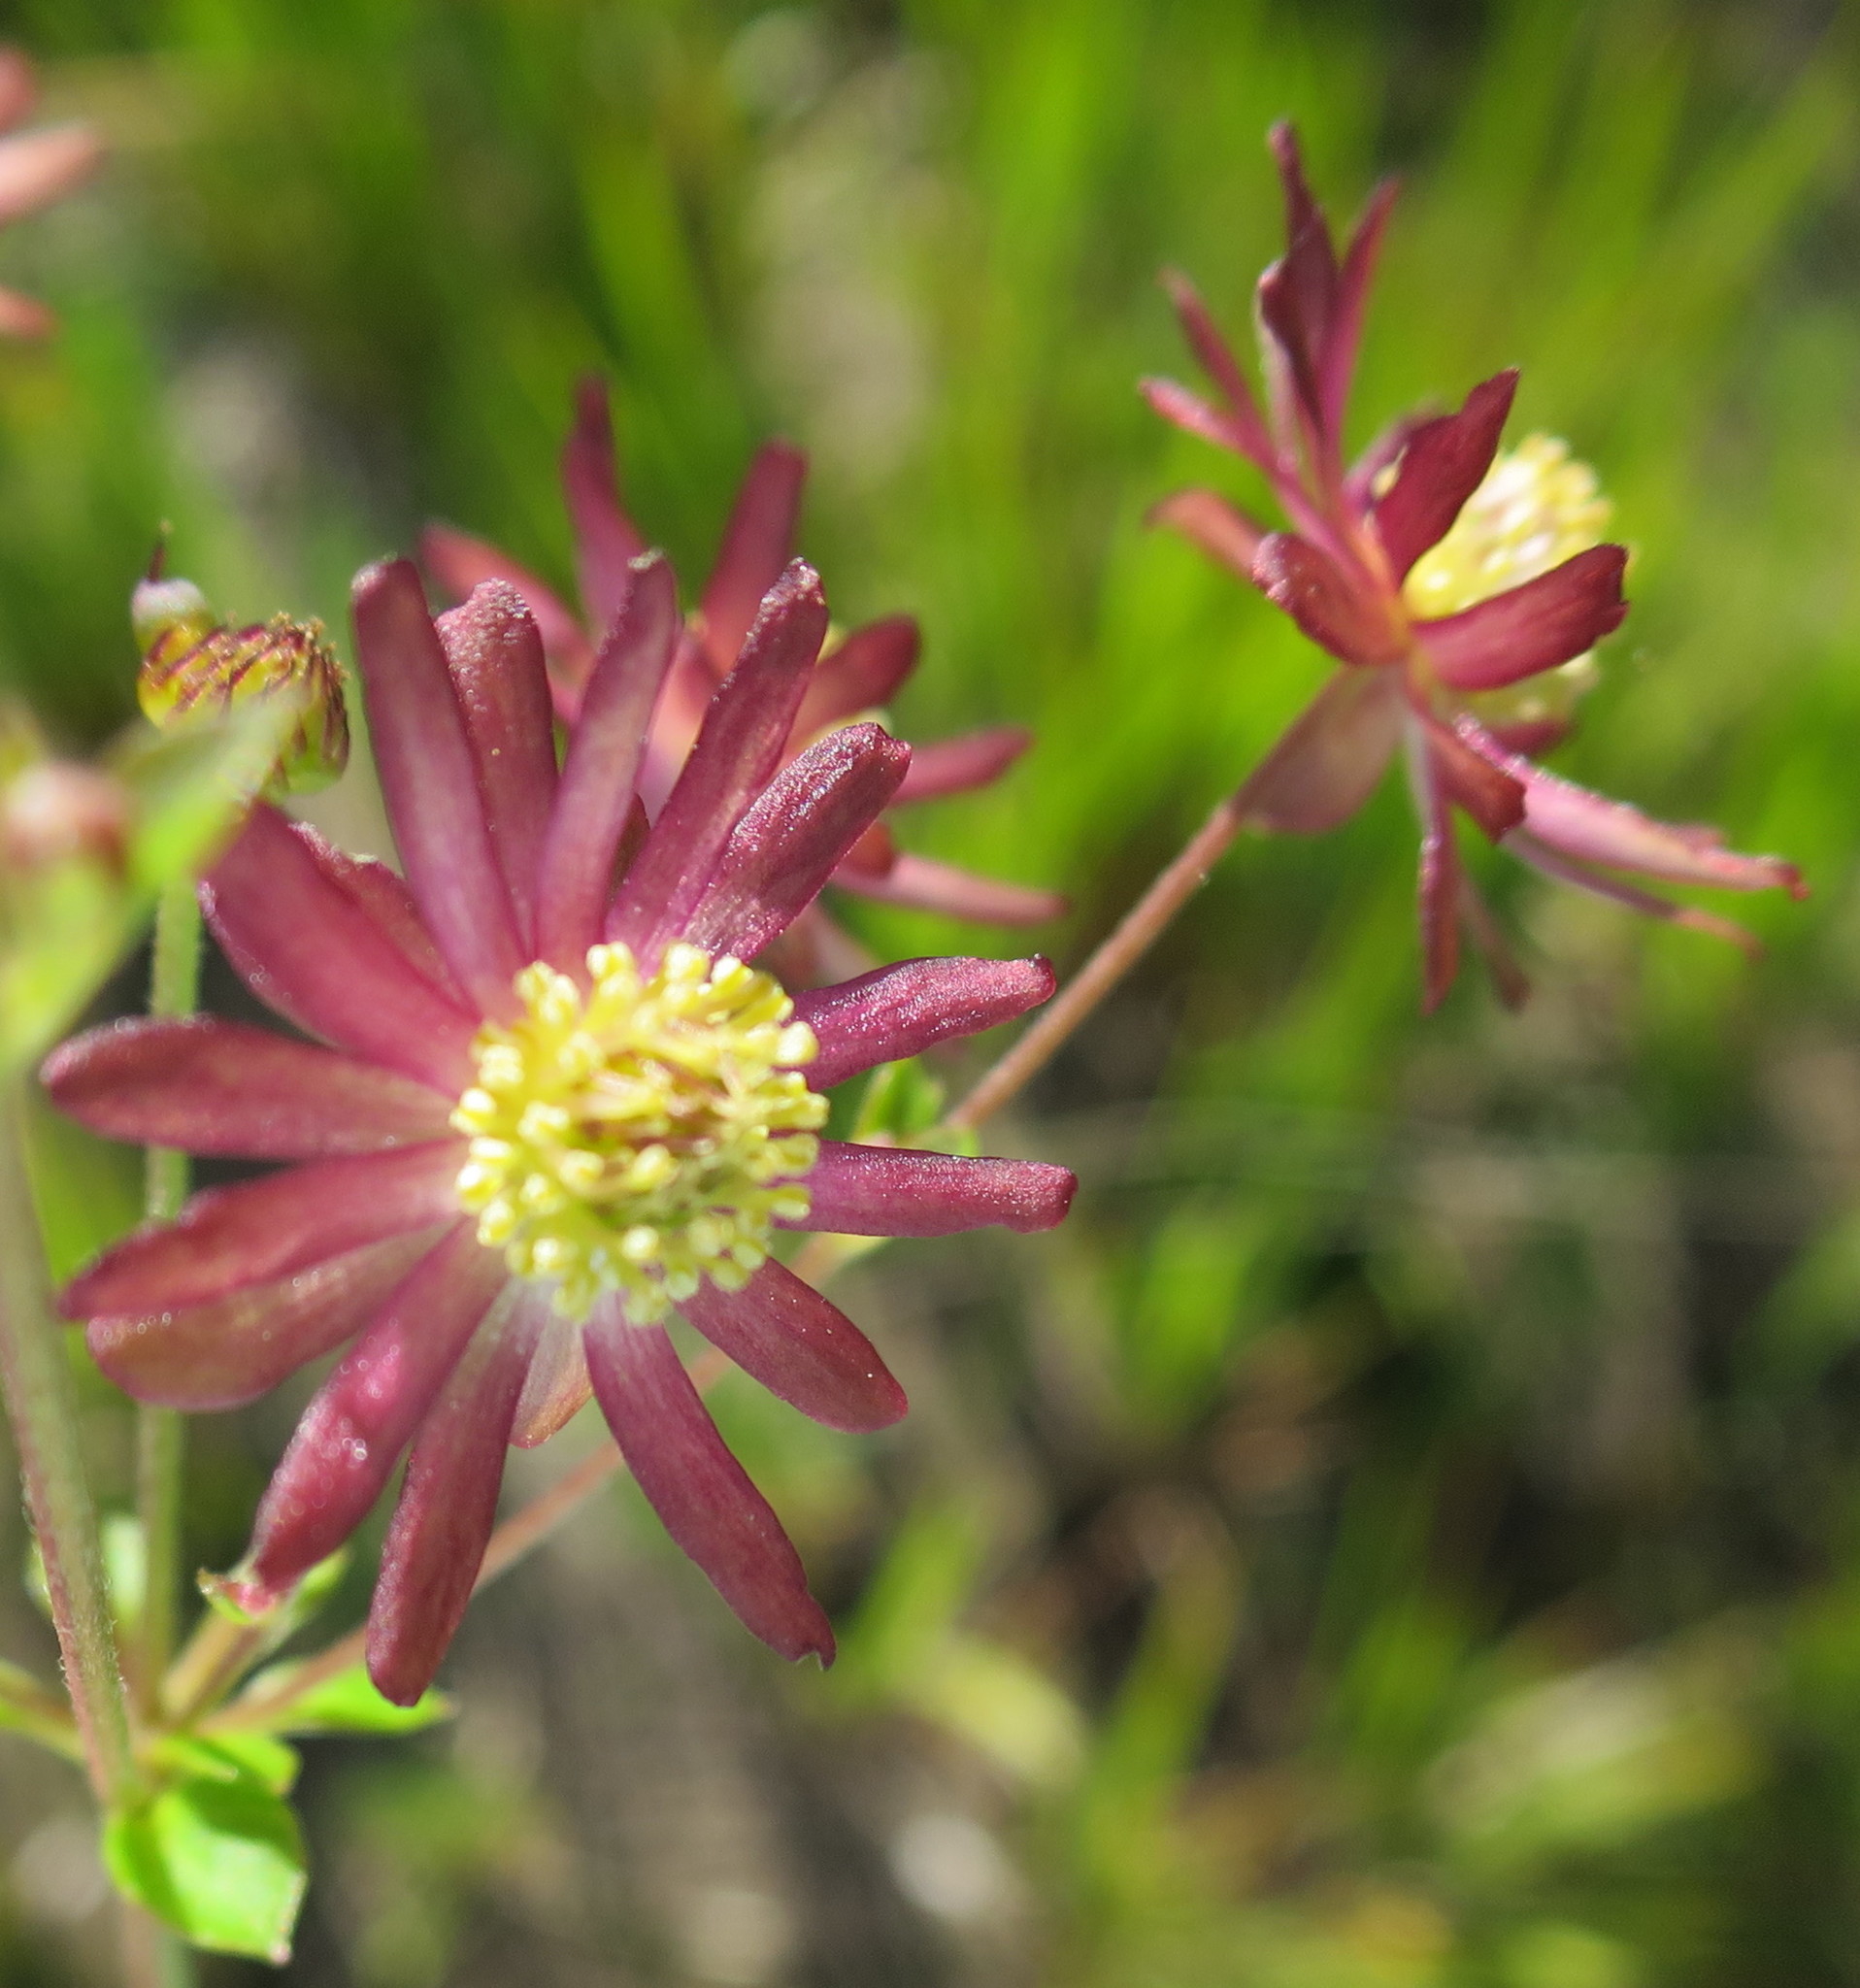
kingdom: Plantae
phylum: Tracheophyta
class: Magnoliopsida
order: Ranunculales
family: Ranunculaceae
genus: Knowltonia
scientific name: Knowltonia vesicatoria
